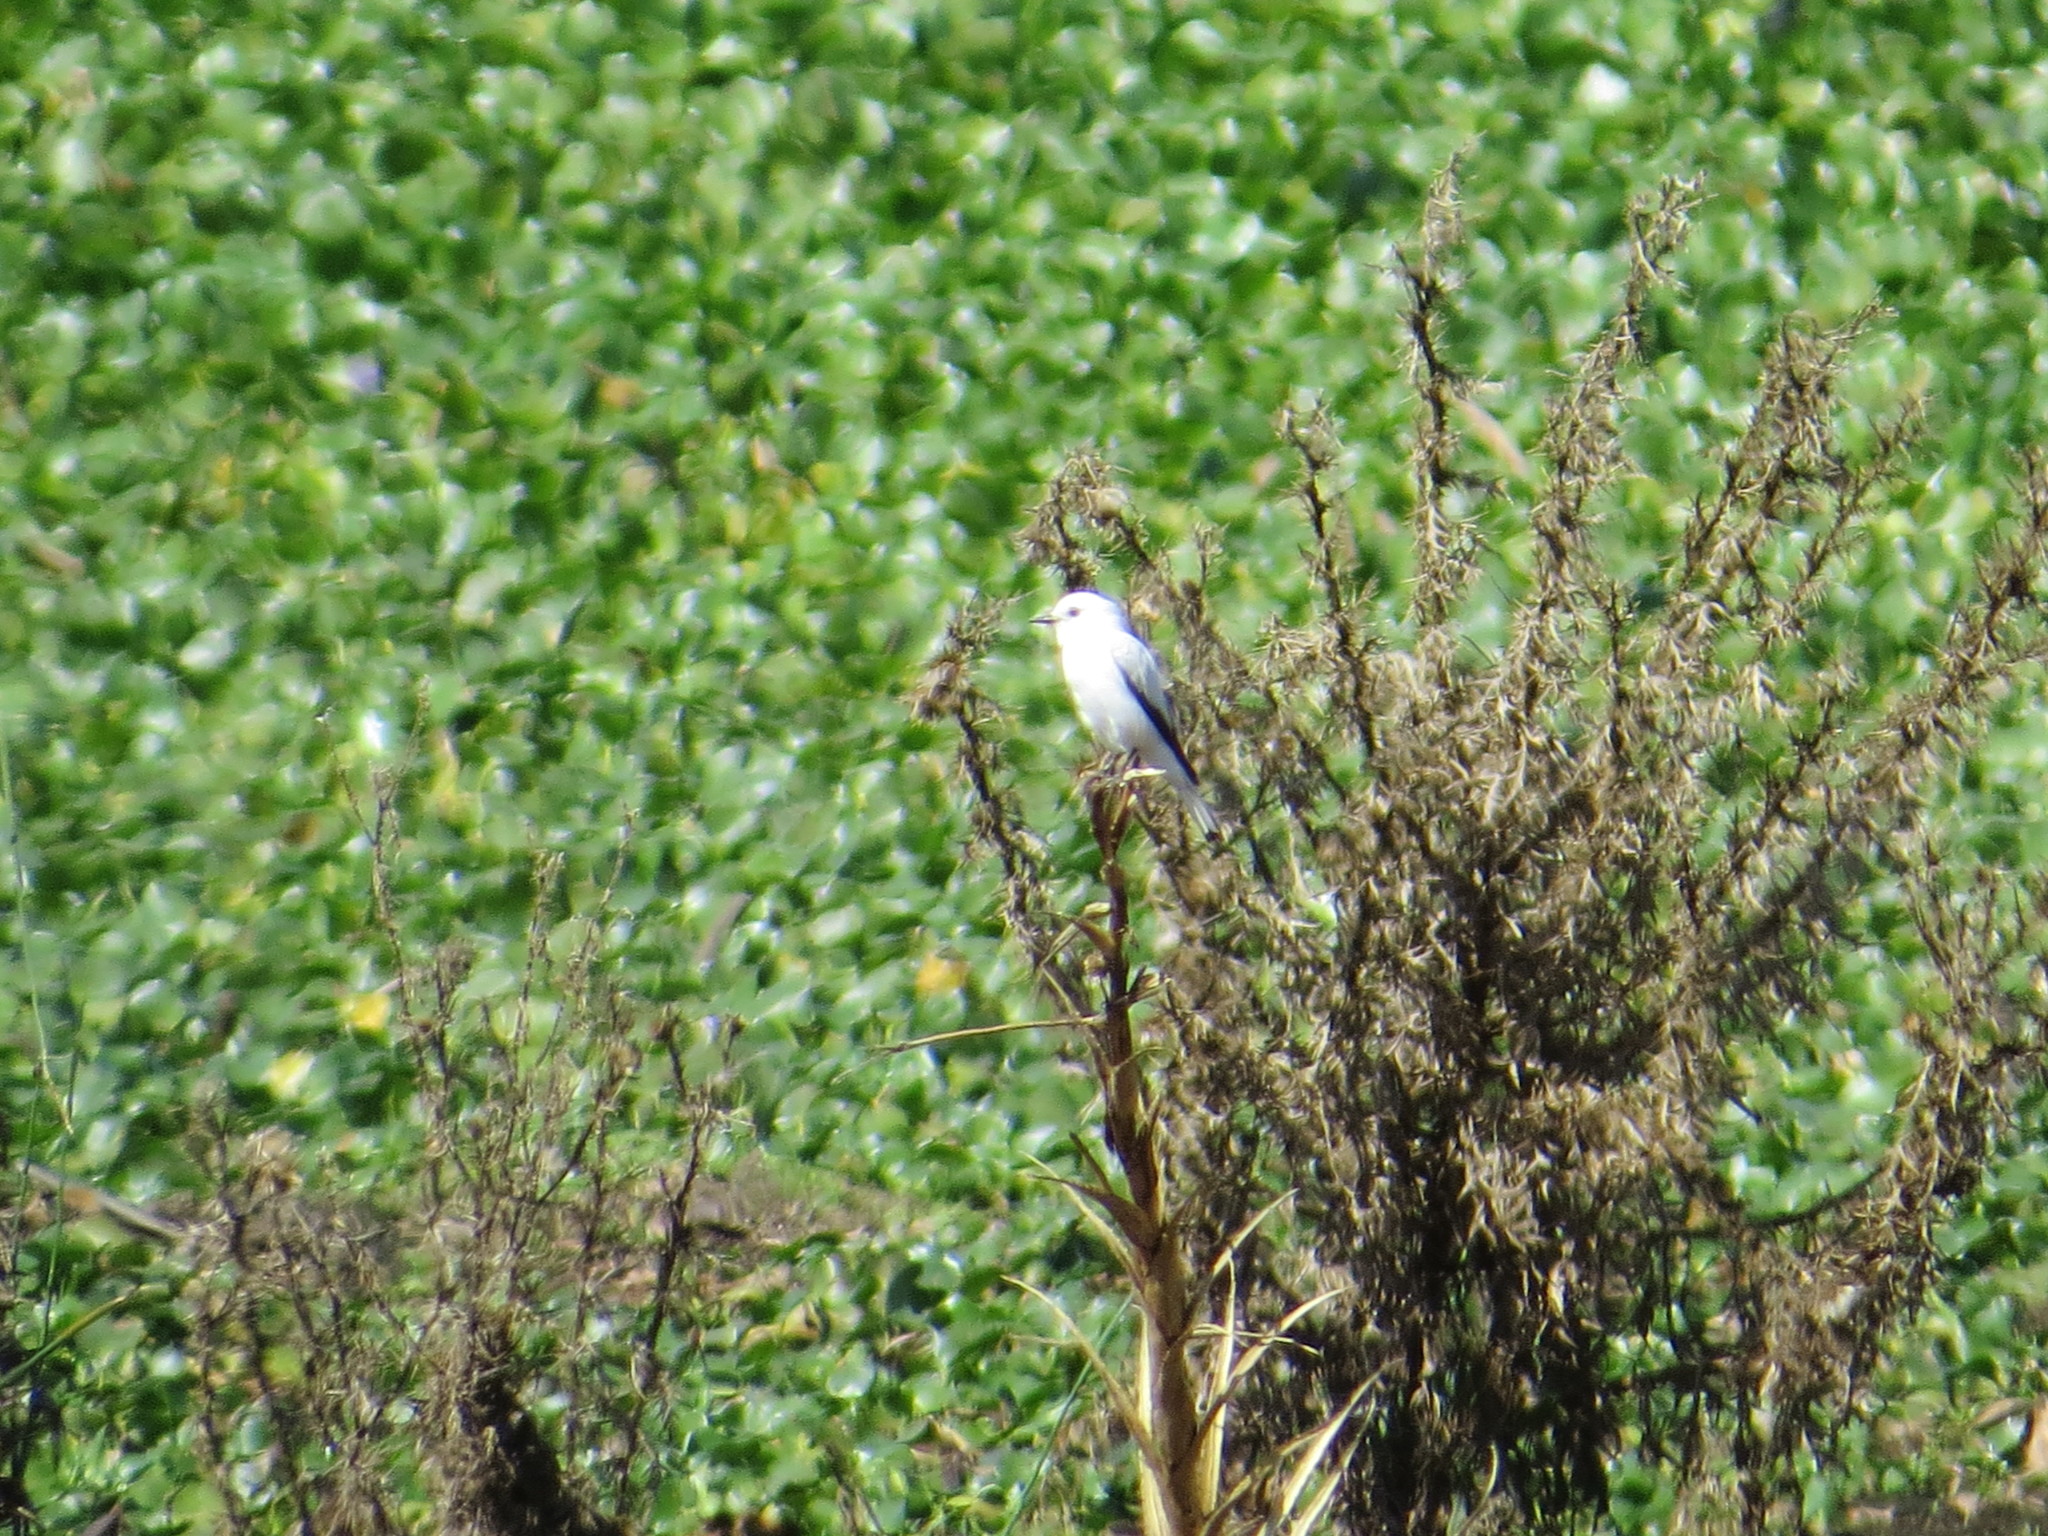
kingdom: Animalia
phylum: Chordata
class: Aves
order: Passeriformes
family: Tyrannidae
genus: Xolmis
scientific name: Xolmis irupero
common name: White monjita
